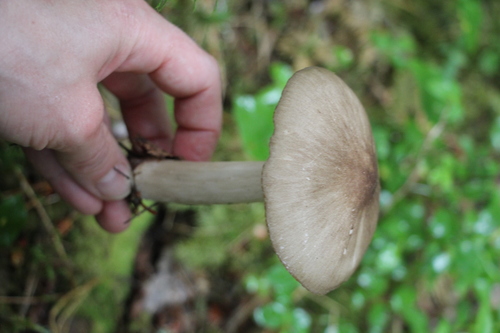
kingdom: Fungi
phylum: Basidiomycota
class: Agaricomycetes
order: Agaricales
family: Tricholomataceae
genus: Megacollybia
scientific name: Megacollybia platyphylla
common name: Whitelaced shank
